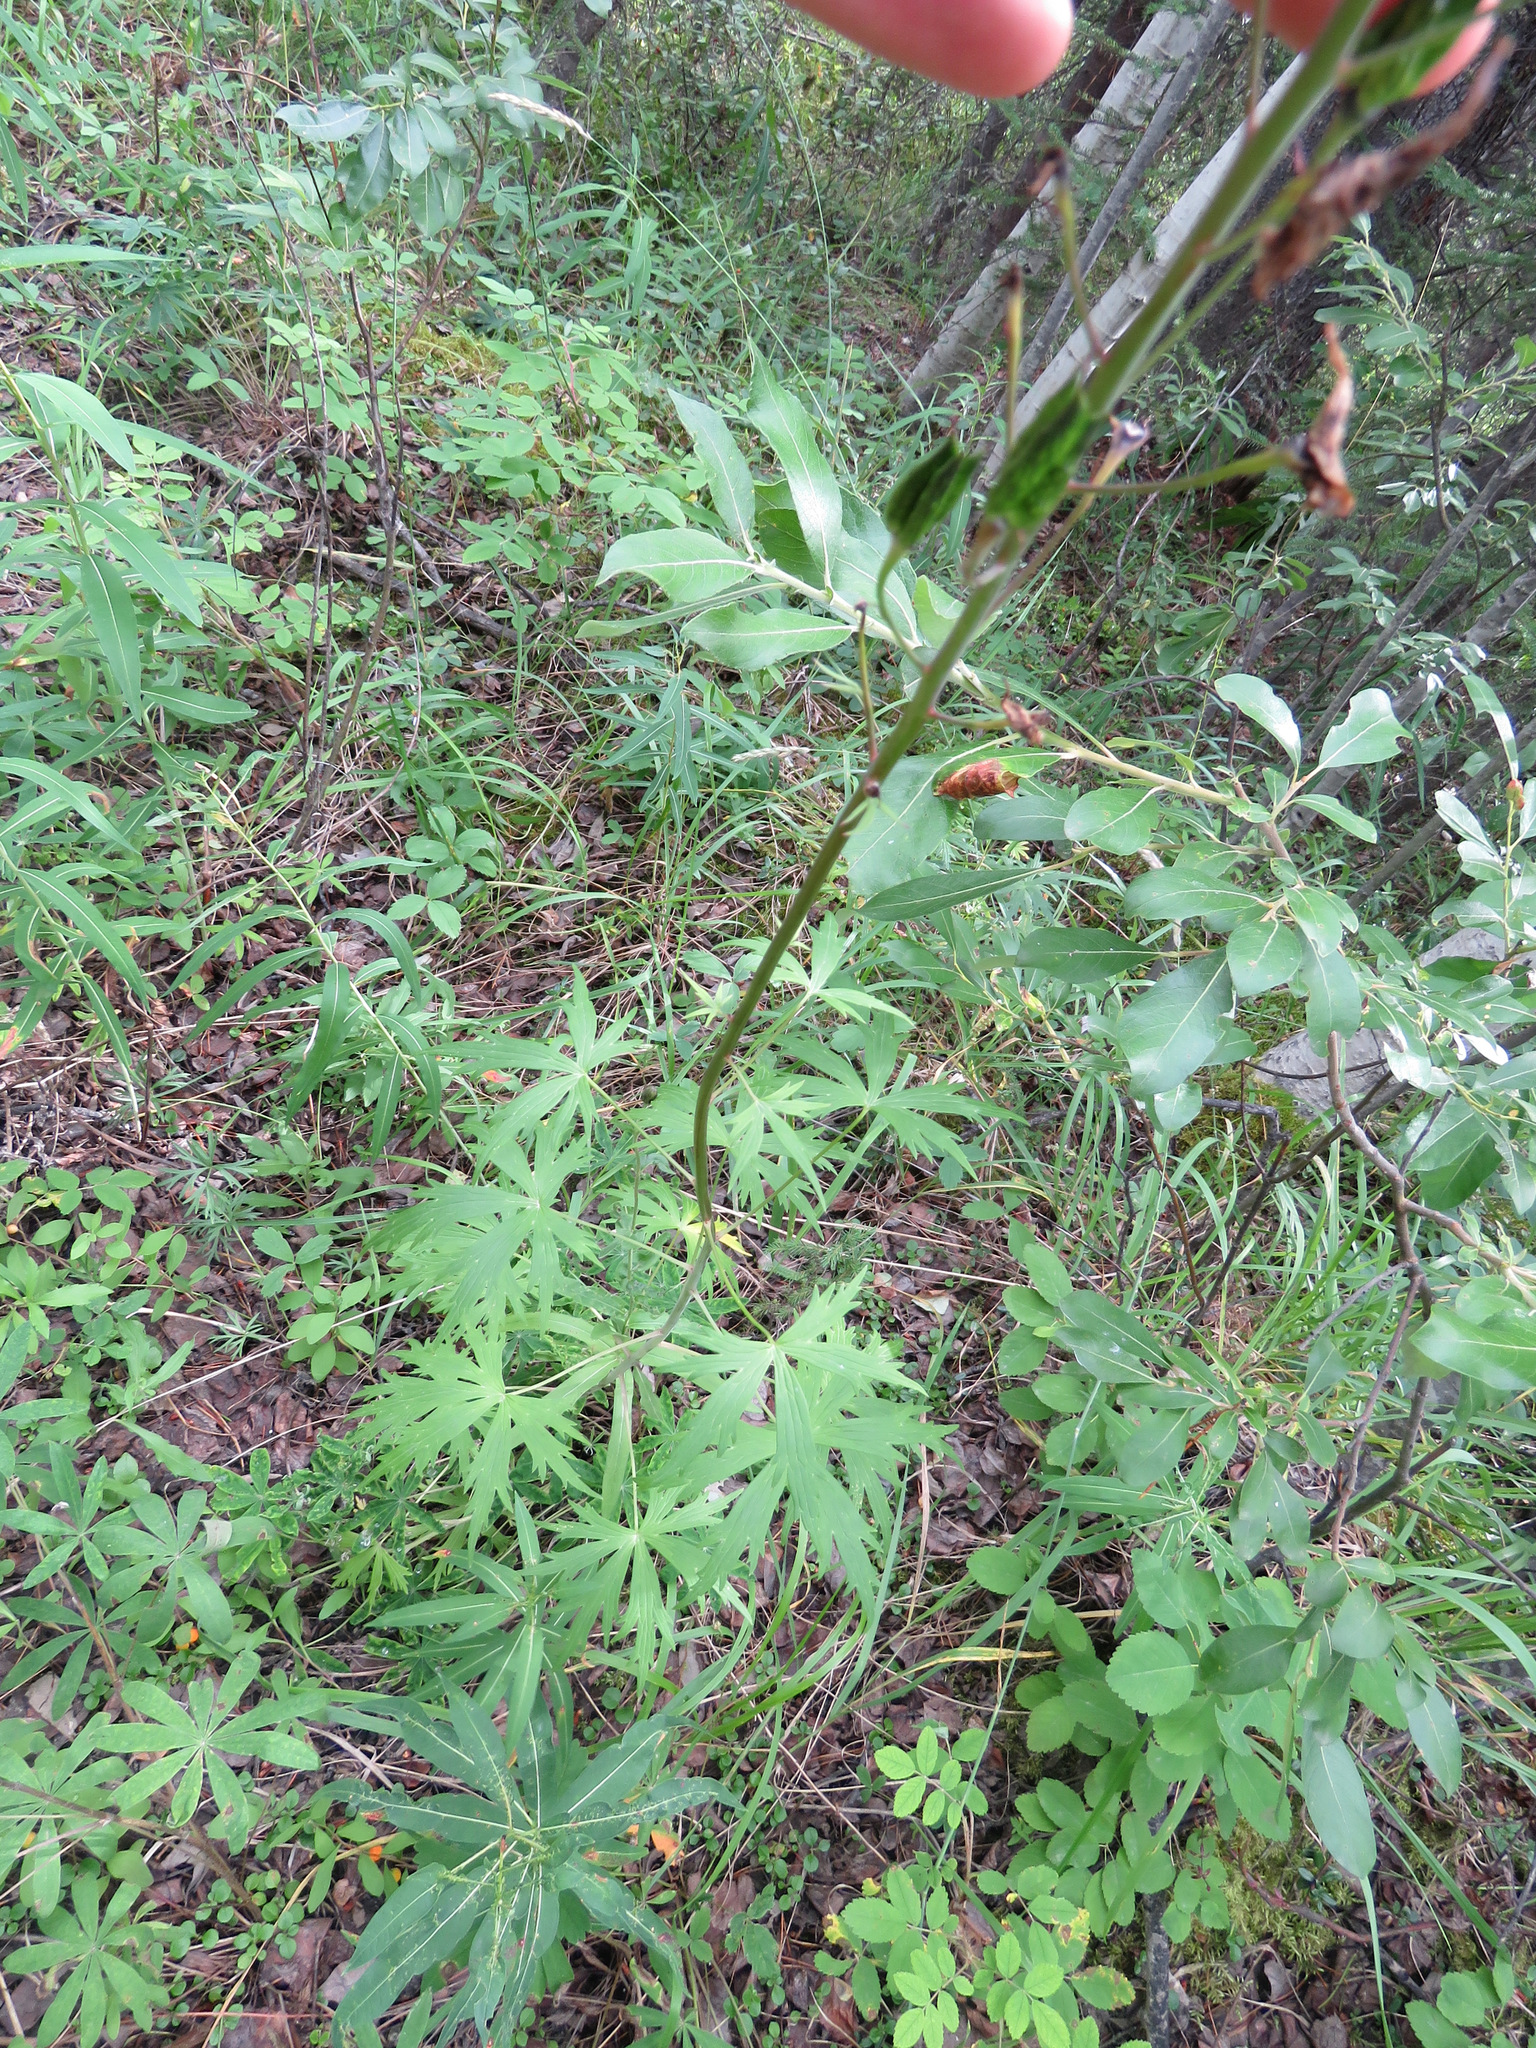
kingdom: Plantae
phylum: Tracheophyta
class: Magnoliopsida
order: Ranunculales
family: Ranunculaceae
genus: Delphinium
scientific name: Delphinium glaucum
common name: Brown's larkspur
